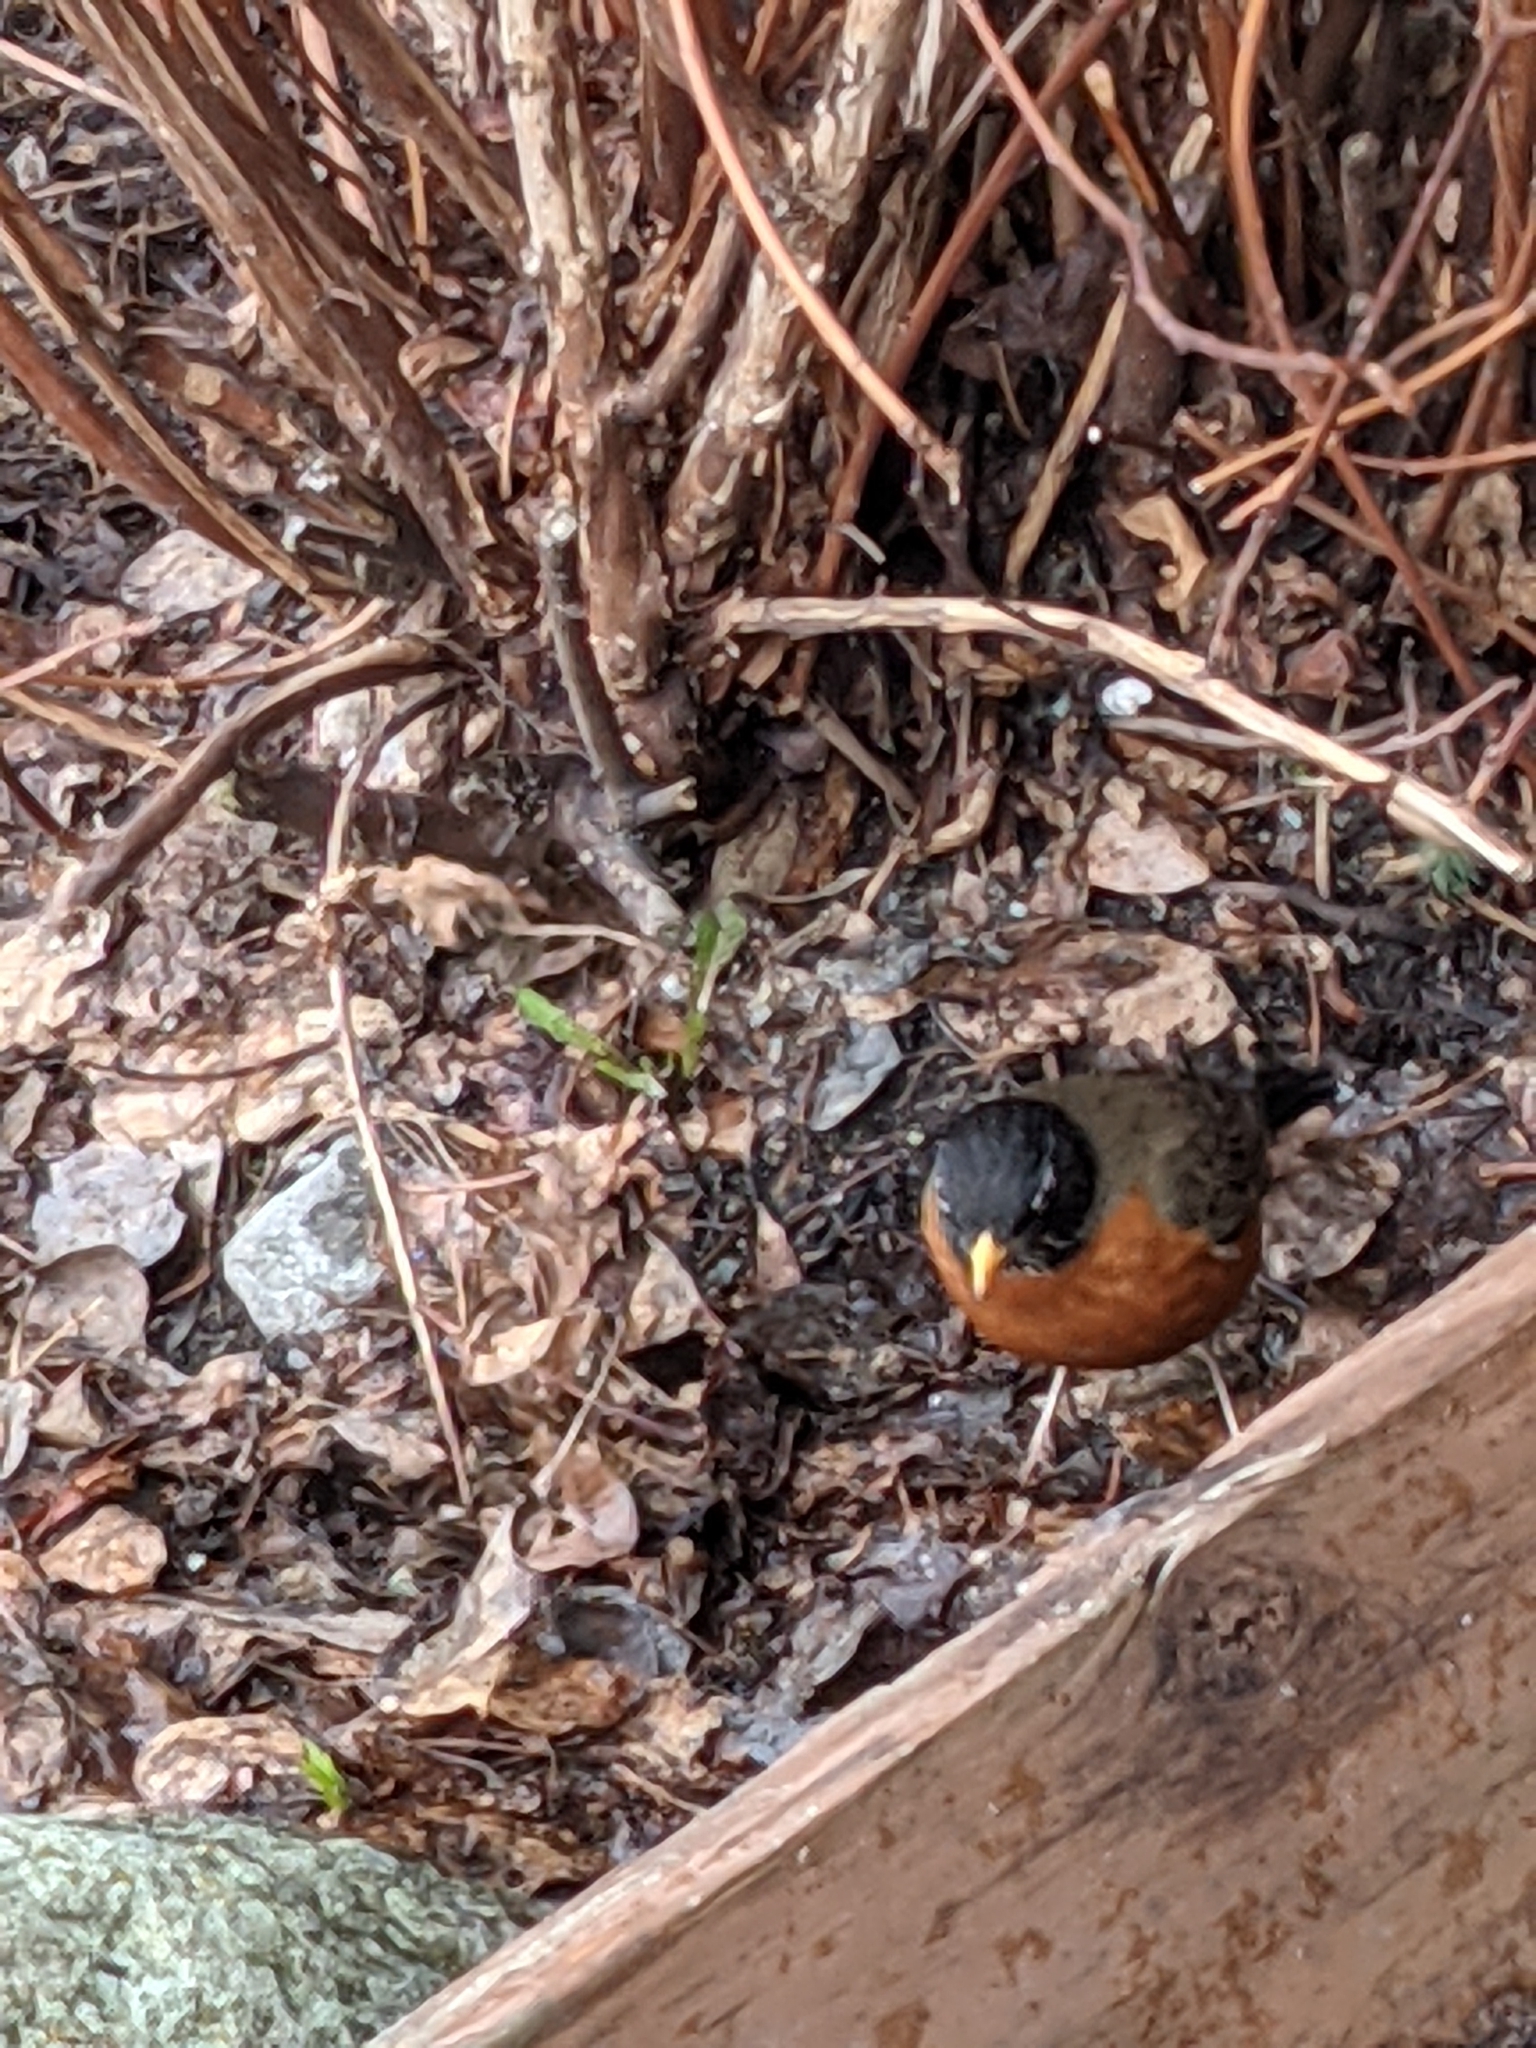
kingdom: Animalia
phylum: Chordata
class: Aves
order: Passeriformes
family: Turdidae
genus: Turdus
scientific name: Turdus migratorius
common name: American robin
